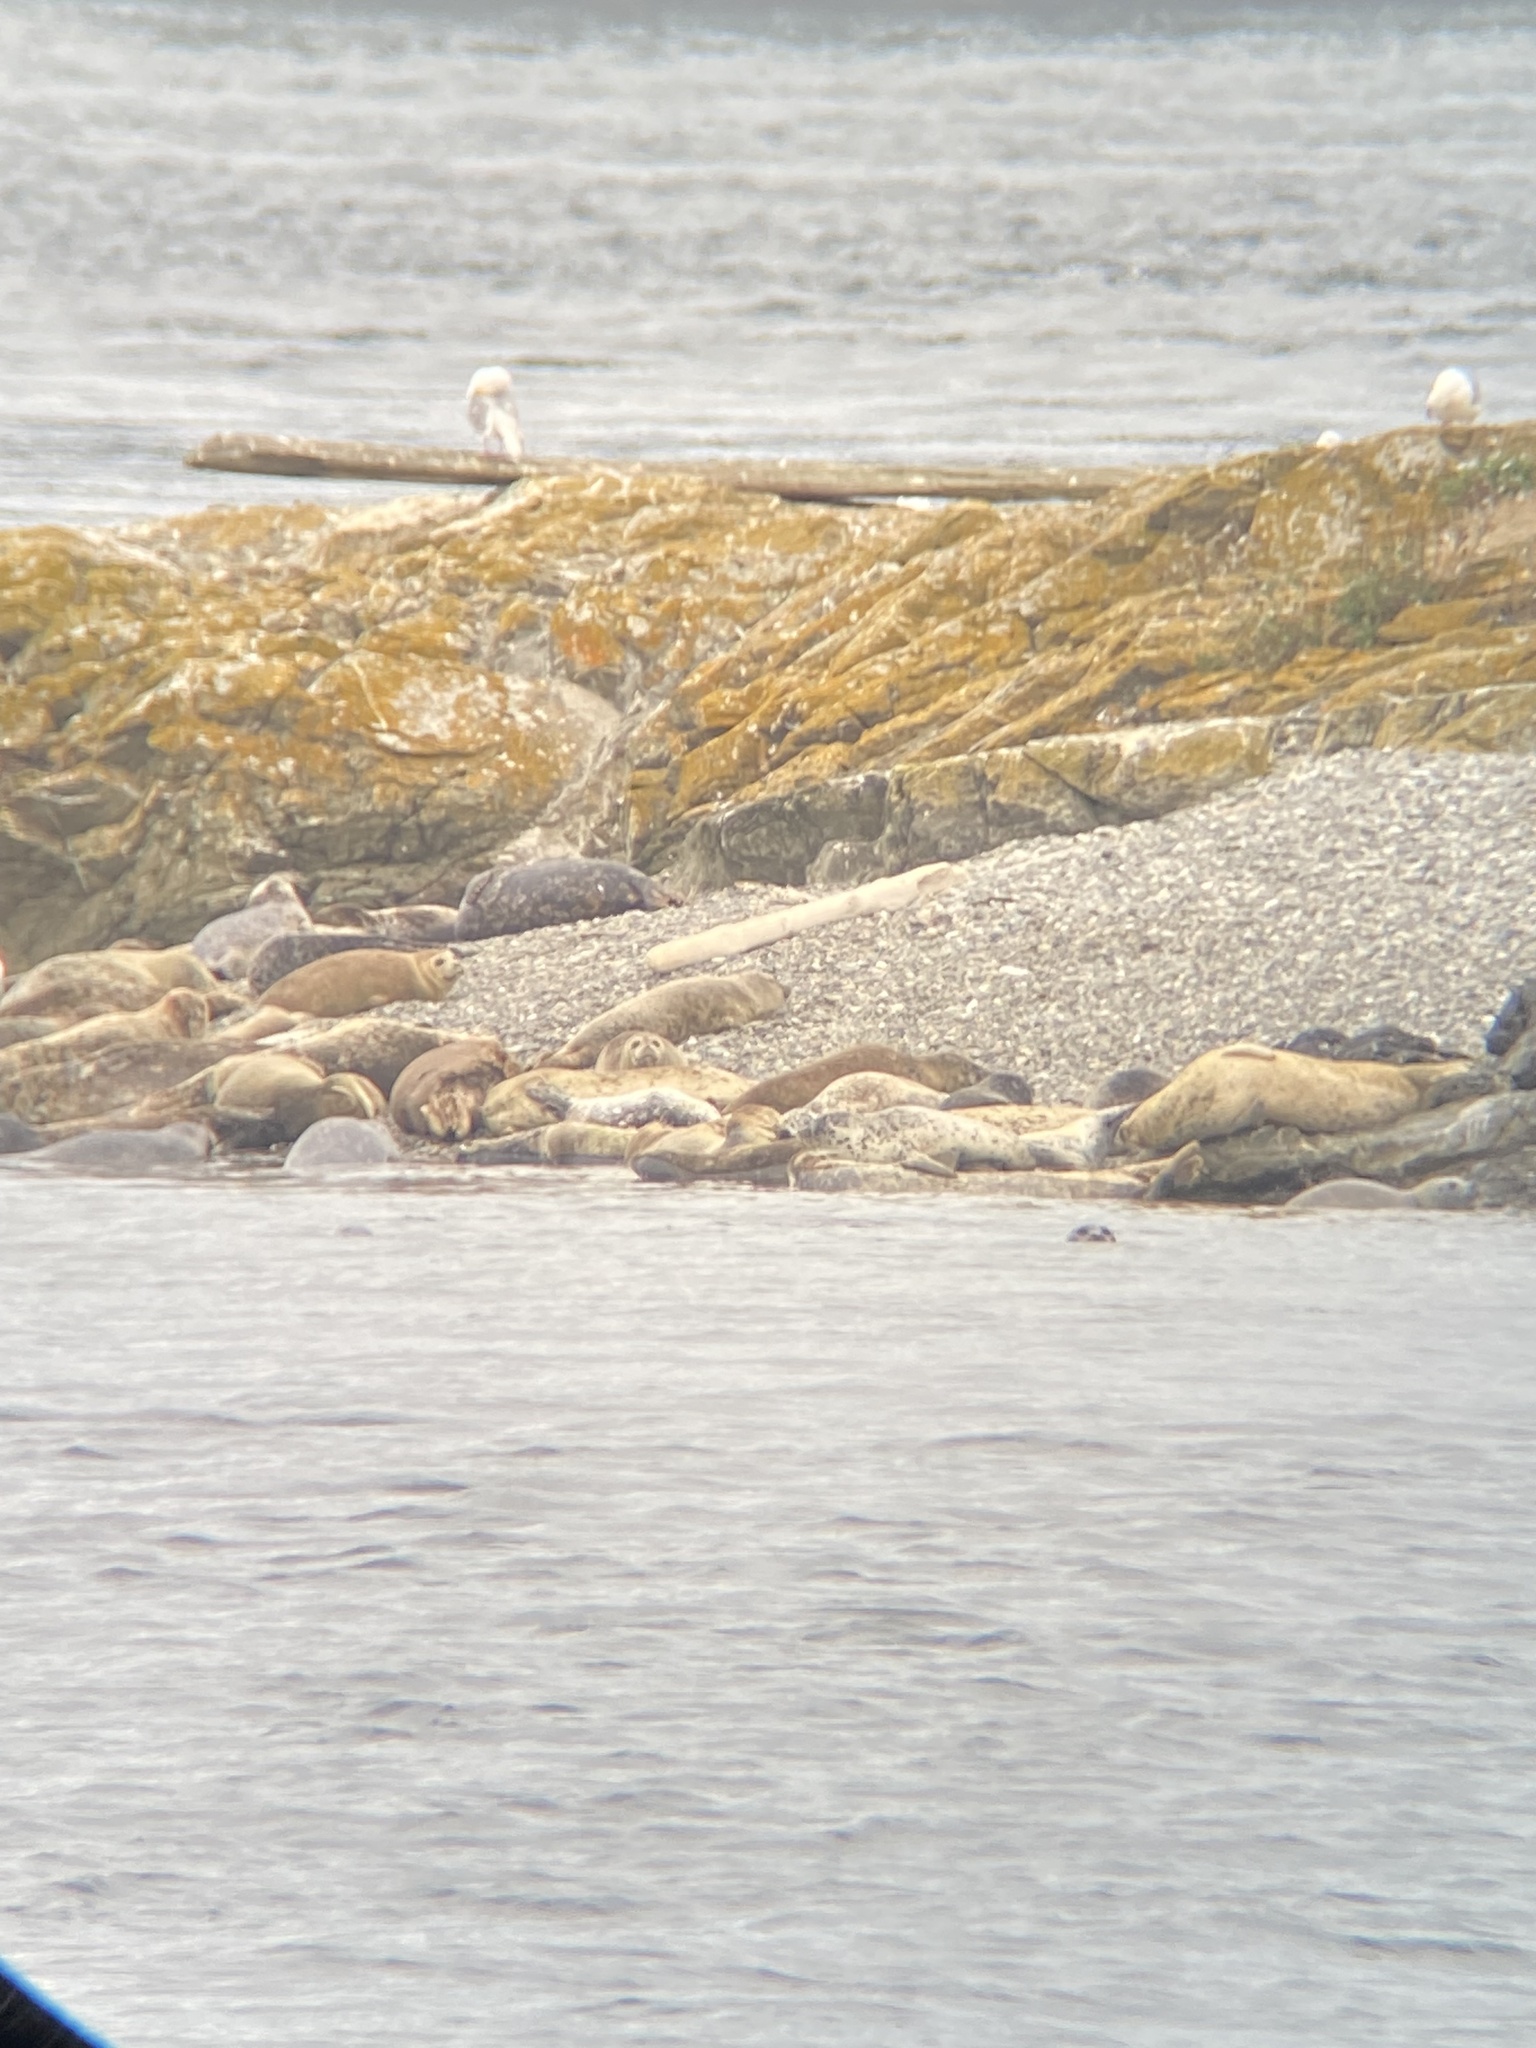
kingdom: Animalia
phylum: Chordata
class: Mammalia
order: Carnivora
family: Phocidae
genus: Phoca
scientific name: Phoca vitulina
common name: Harbor seal
